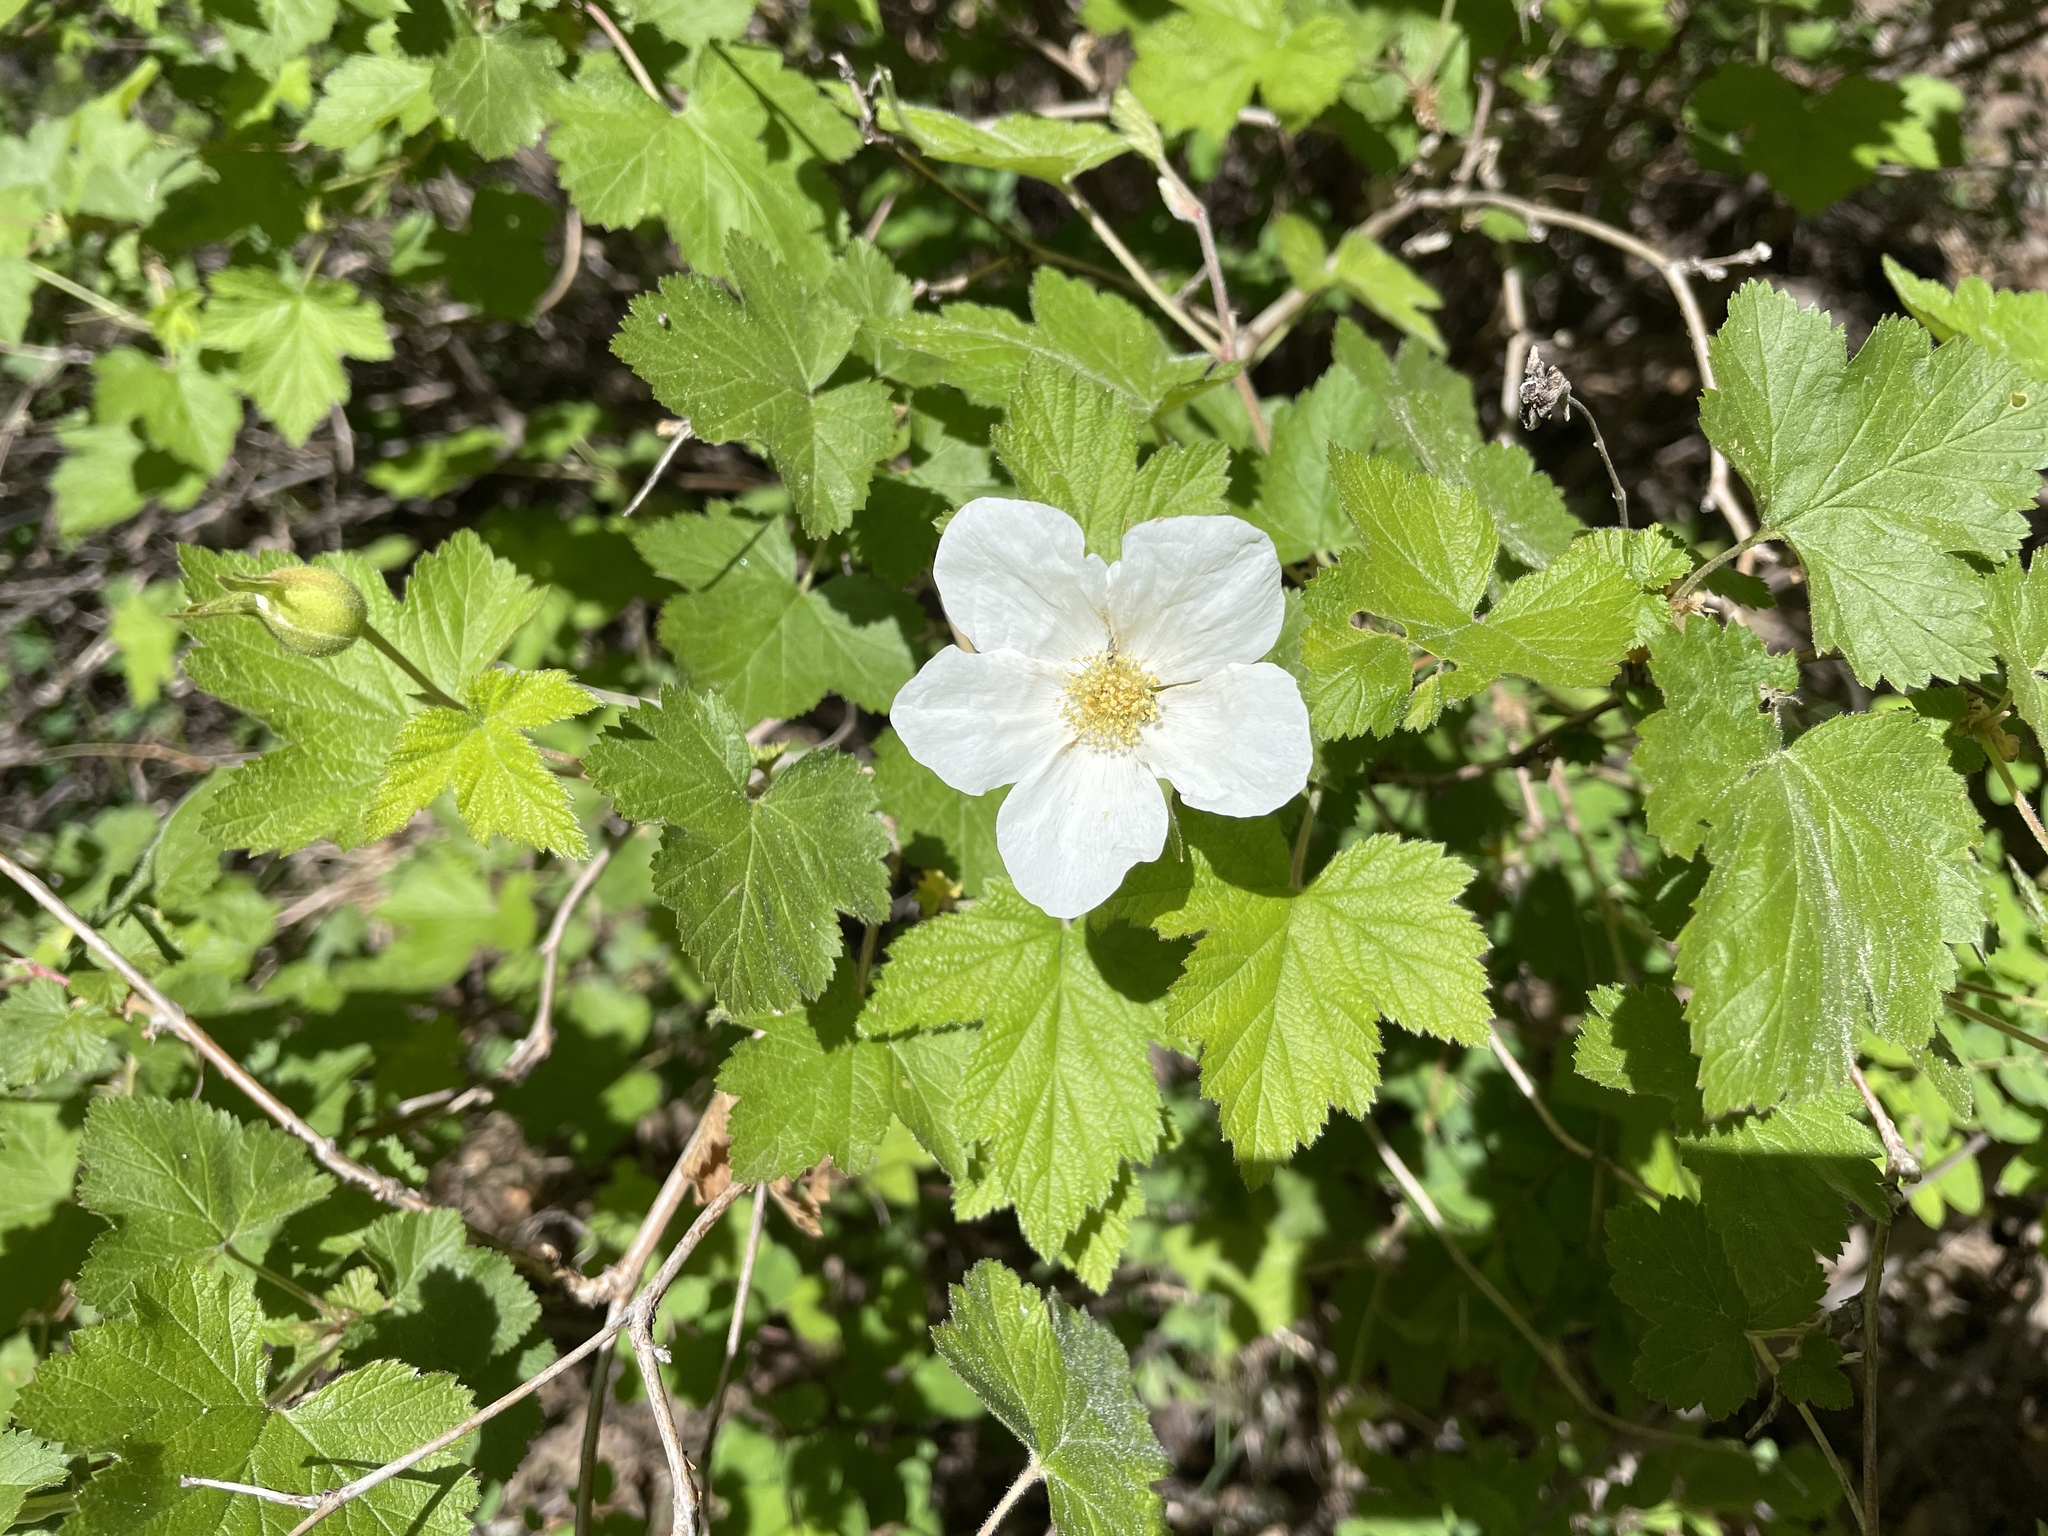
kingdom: Plantae
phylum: Tracheophyta
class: Magnoliopsida
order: Rosales
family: Rosaceae
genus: Rubus
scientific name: Rubus neomexicanus
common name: New mexico raspberry
